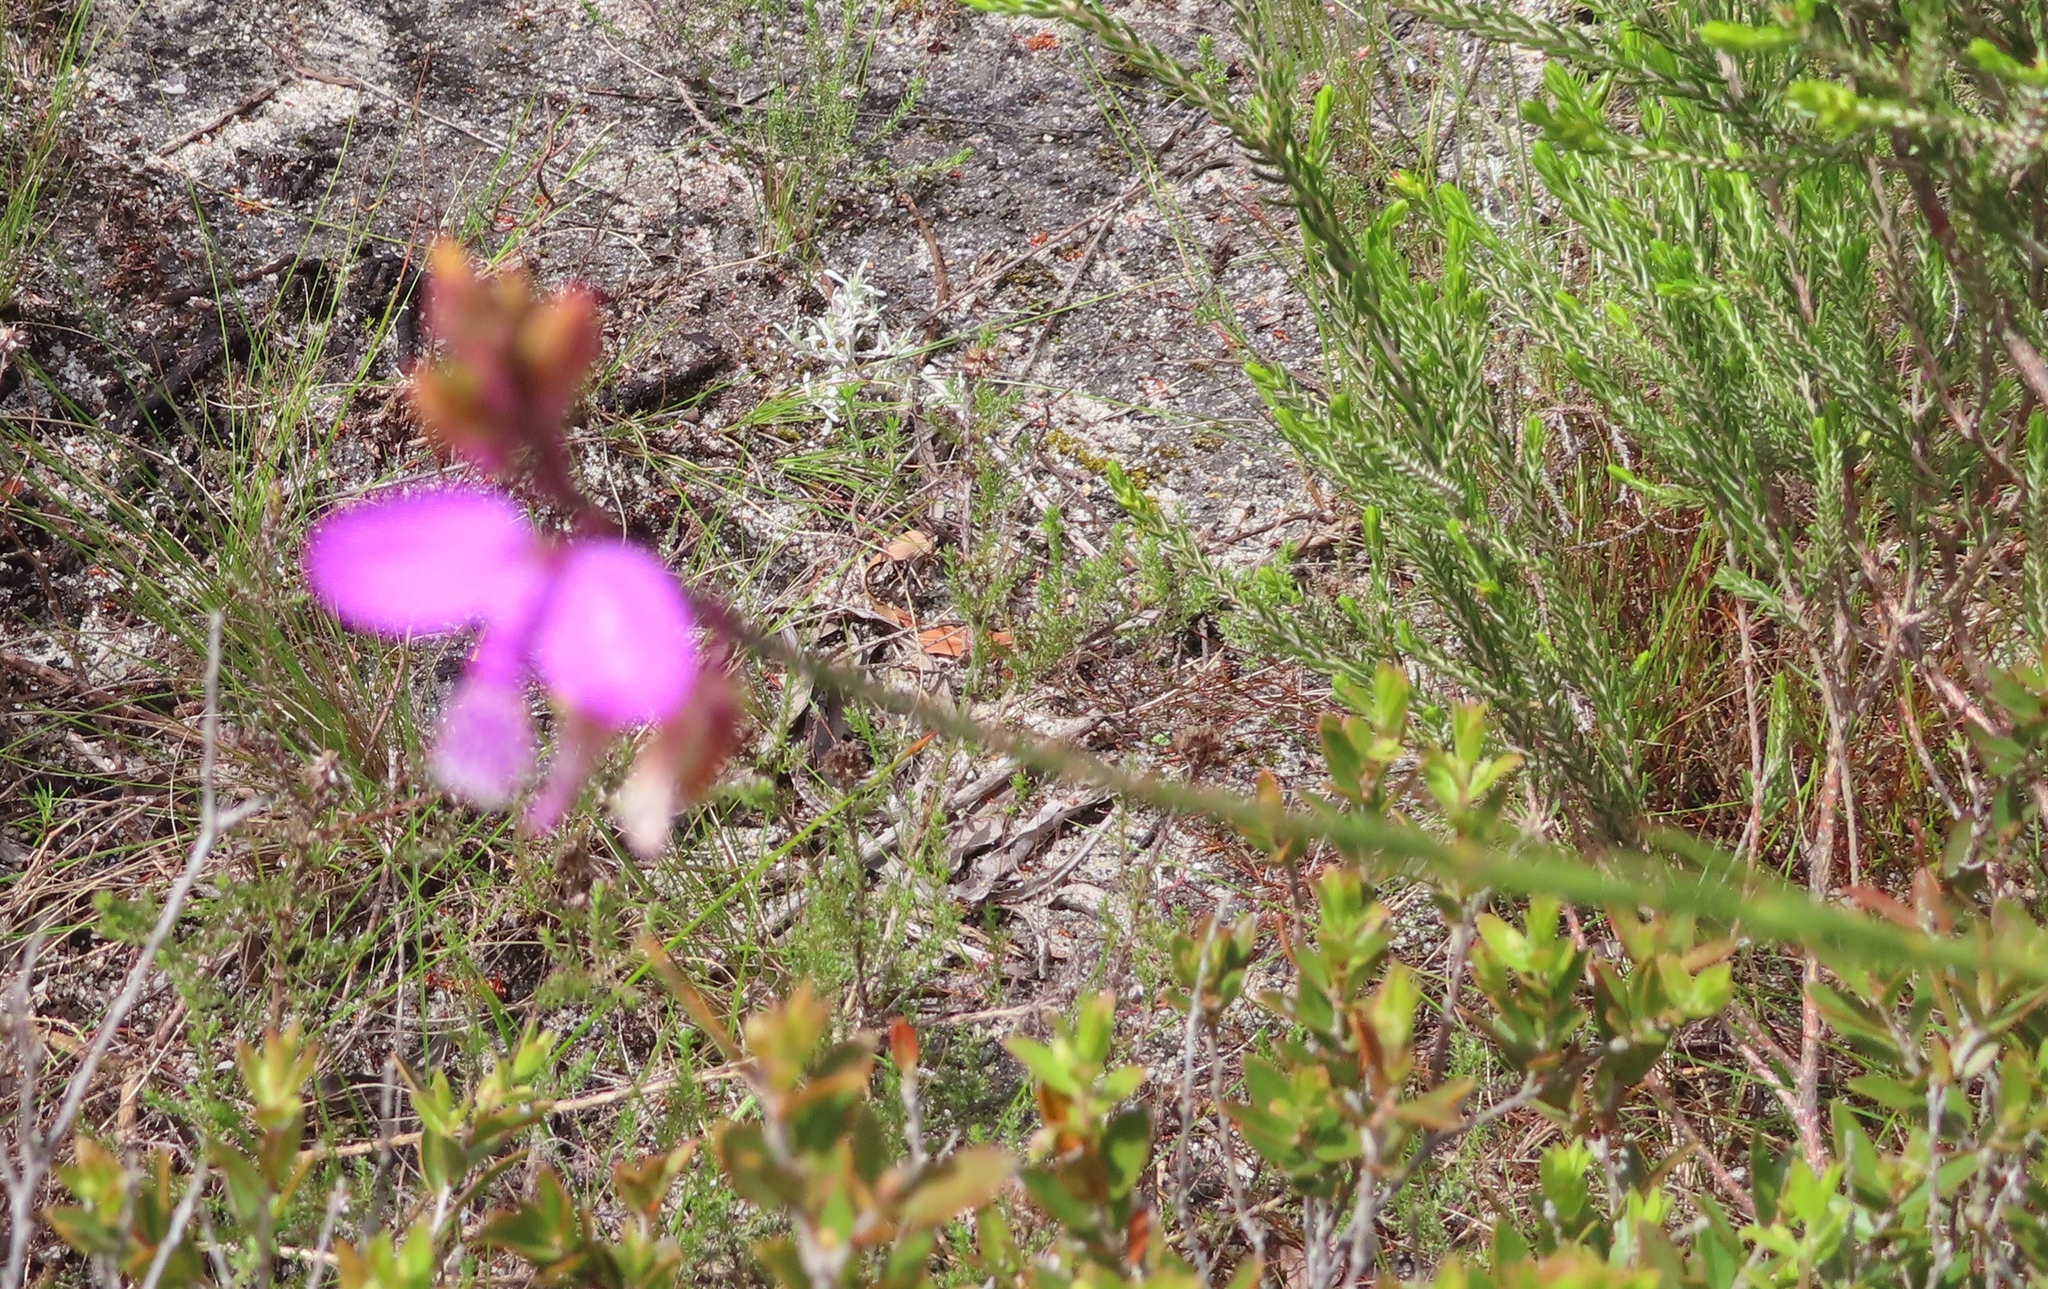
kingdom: Plantae
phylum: Tracheophyta
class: Magnoliopsida
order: Fabales
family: Polygalaceae
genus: Polygala
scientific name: Polygala garcini
